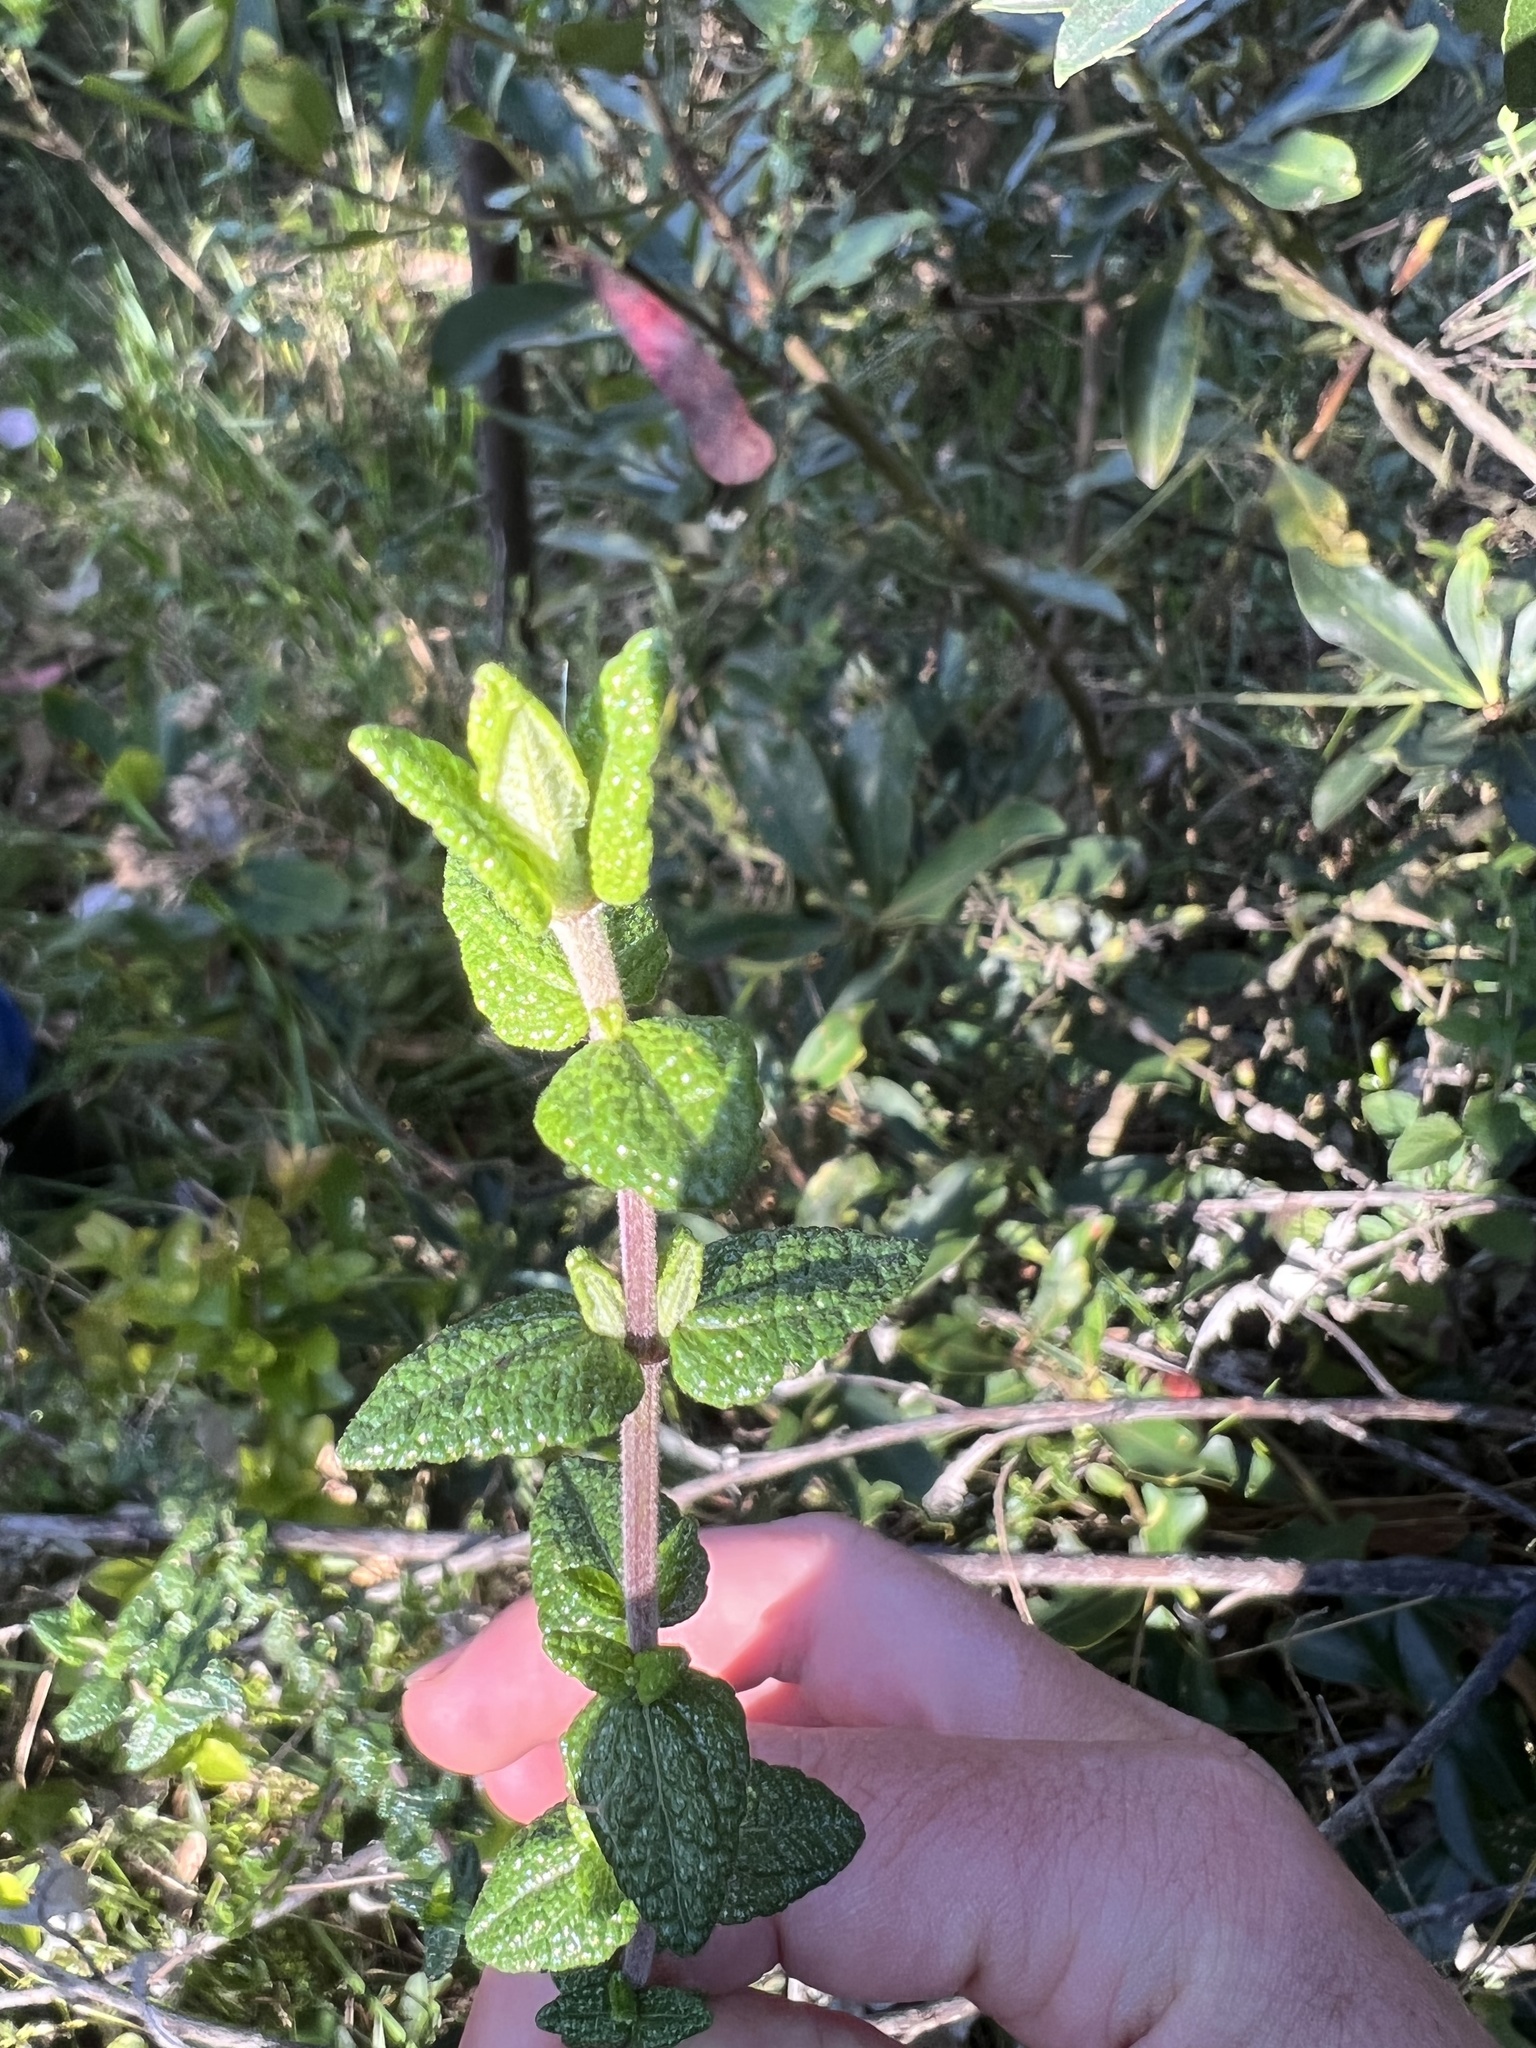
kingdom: Plantae
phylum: Tracheophyta
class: Magnoliopsida
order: Asterales
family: Asteraceae
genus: Chromolaena
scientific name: Chromolaena bullata
